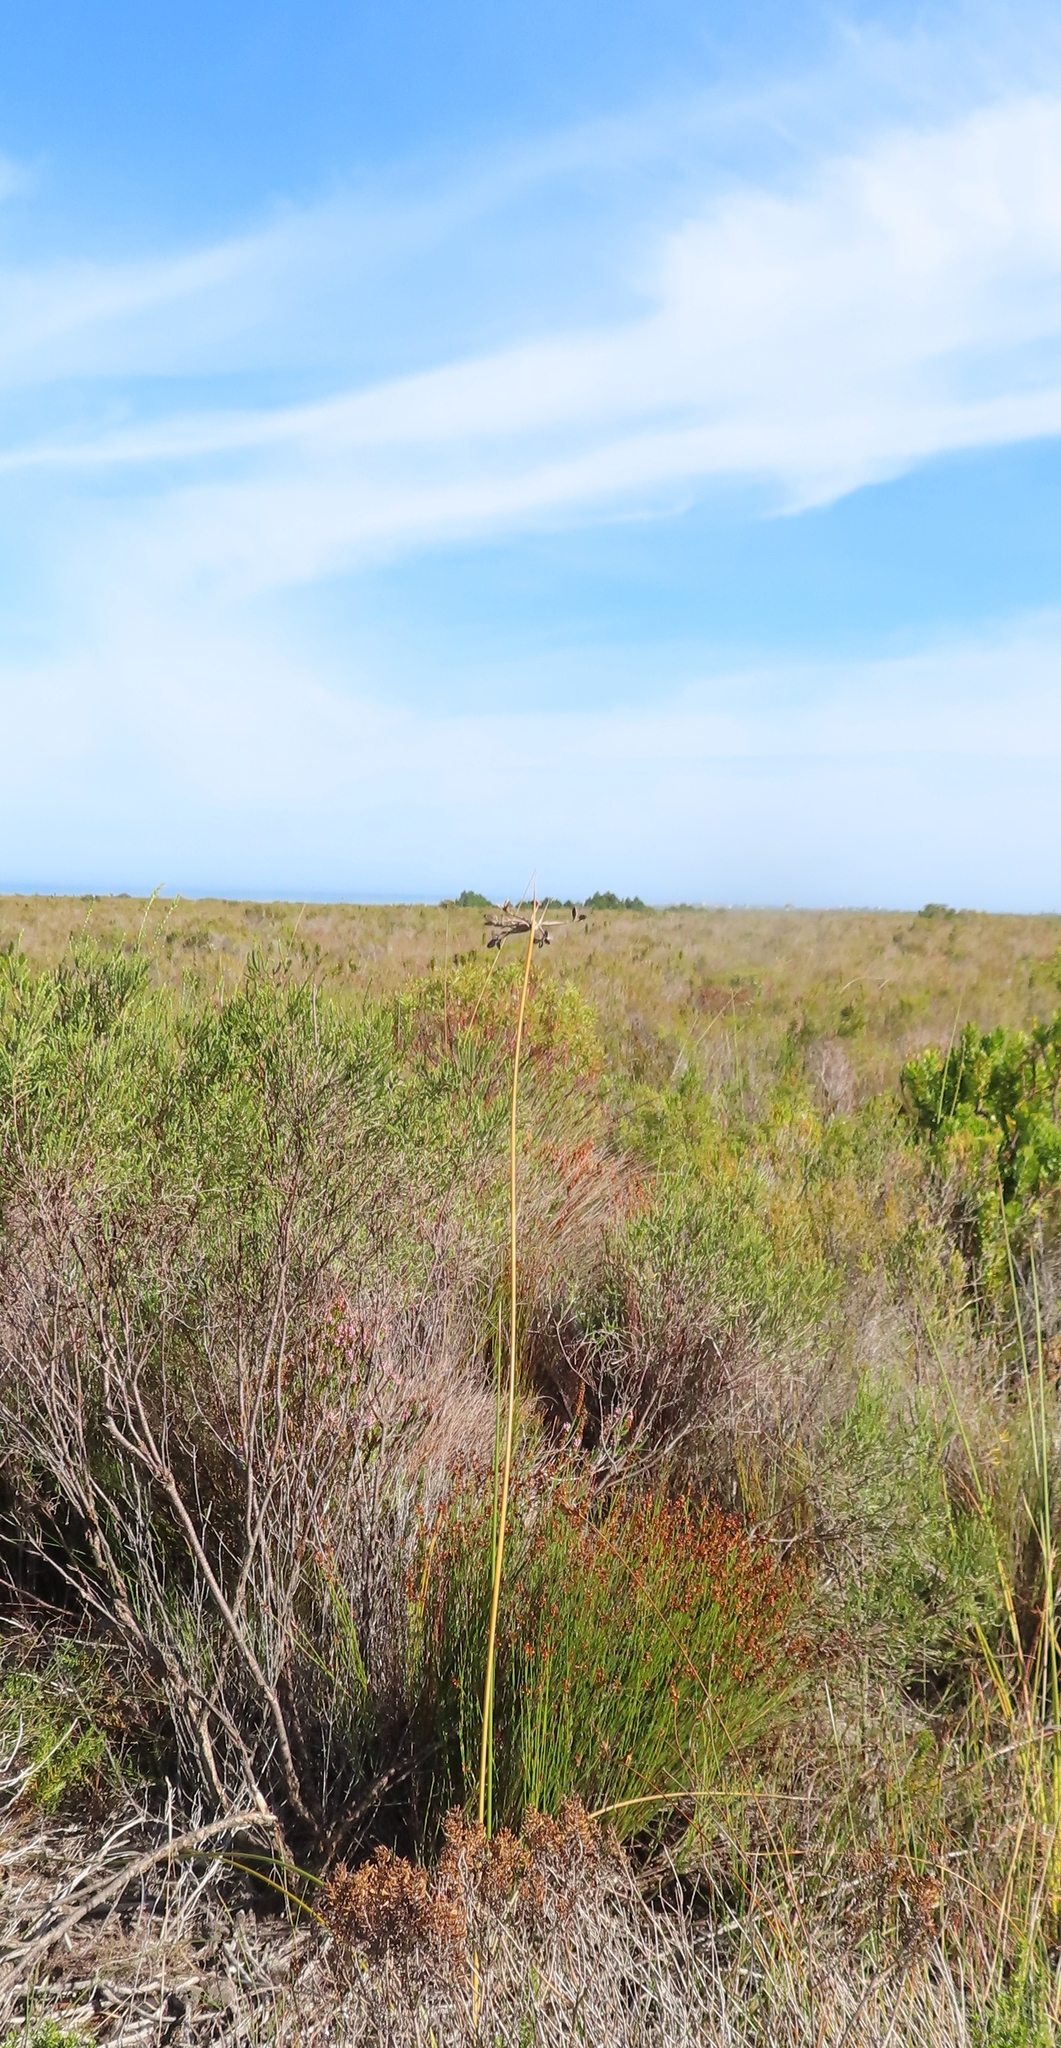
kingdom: Plantae
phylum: Tracheophyta
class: Liliopsida
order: Asparagales
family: Iridaceae
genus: Bobartia
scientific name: Bobartia longicyma
